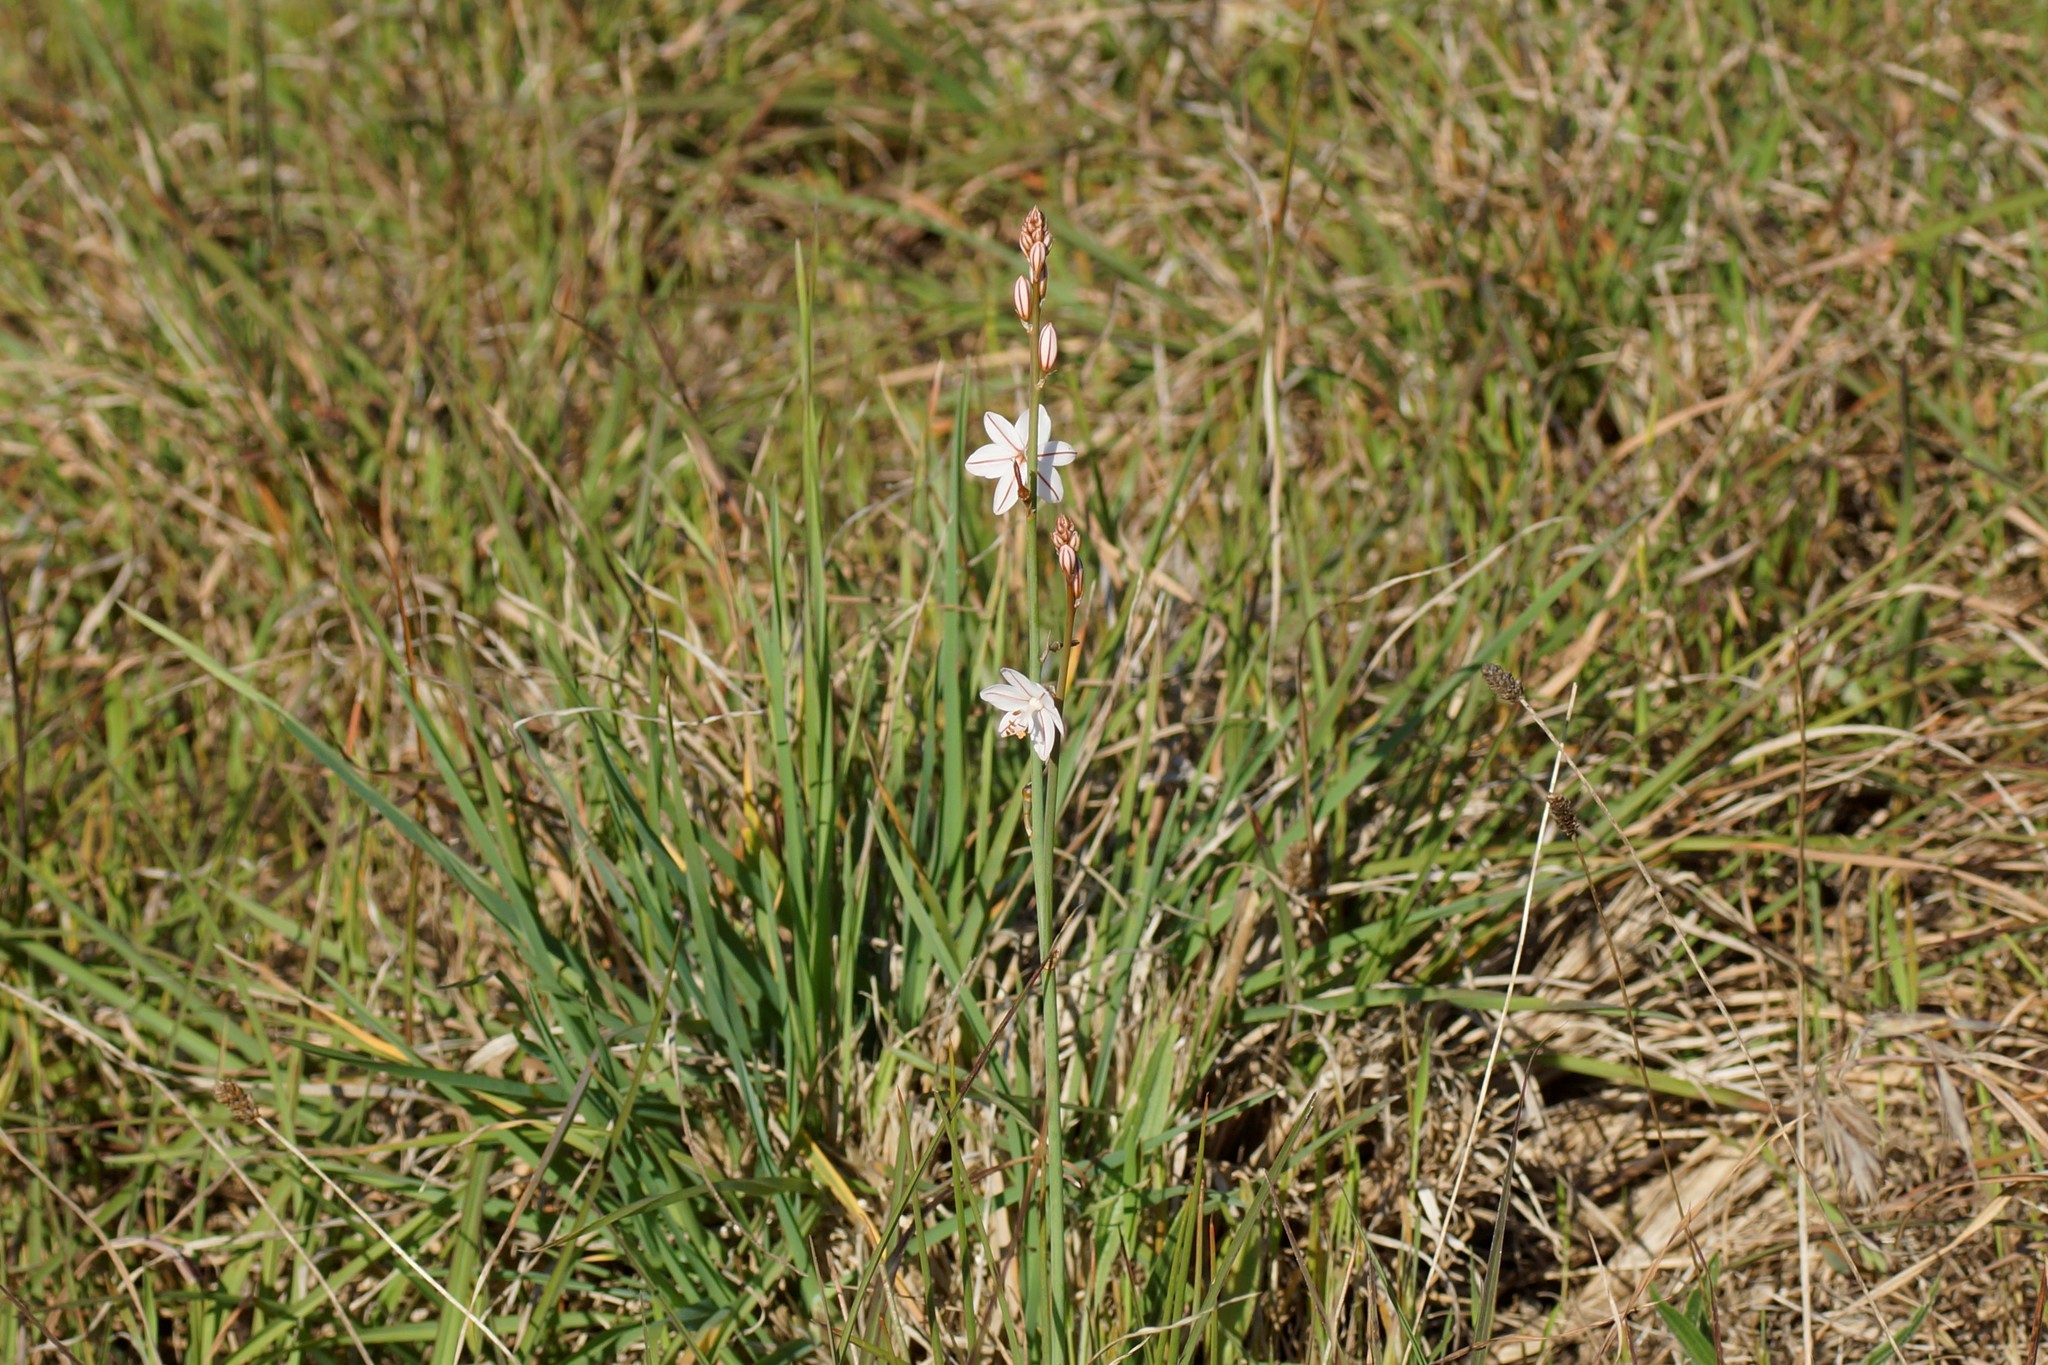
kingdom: Plantae
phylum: Tracheophyta
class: Liliopsida
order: Asparagales
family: Asphodelaceae
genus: Asphodelus
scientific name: Asphodelus fistulosus
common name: Onionweed
